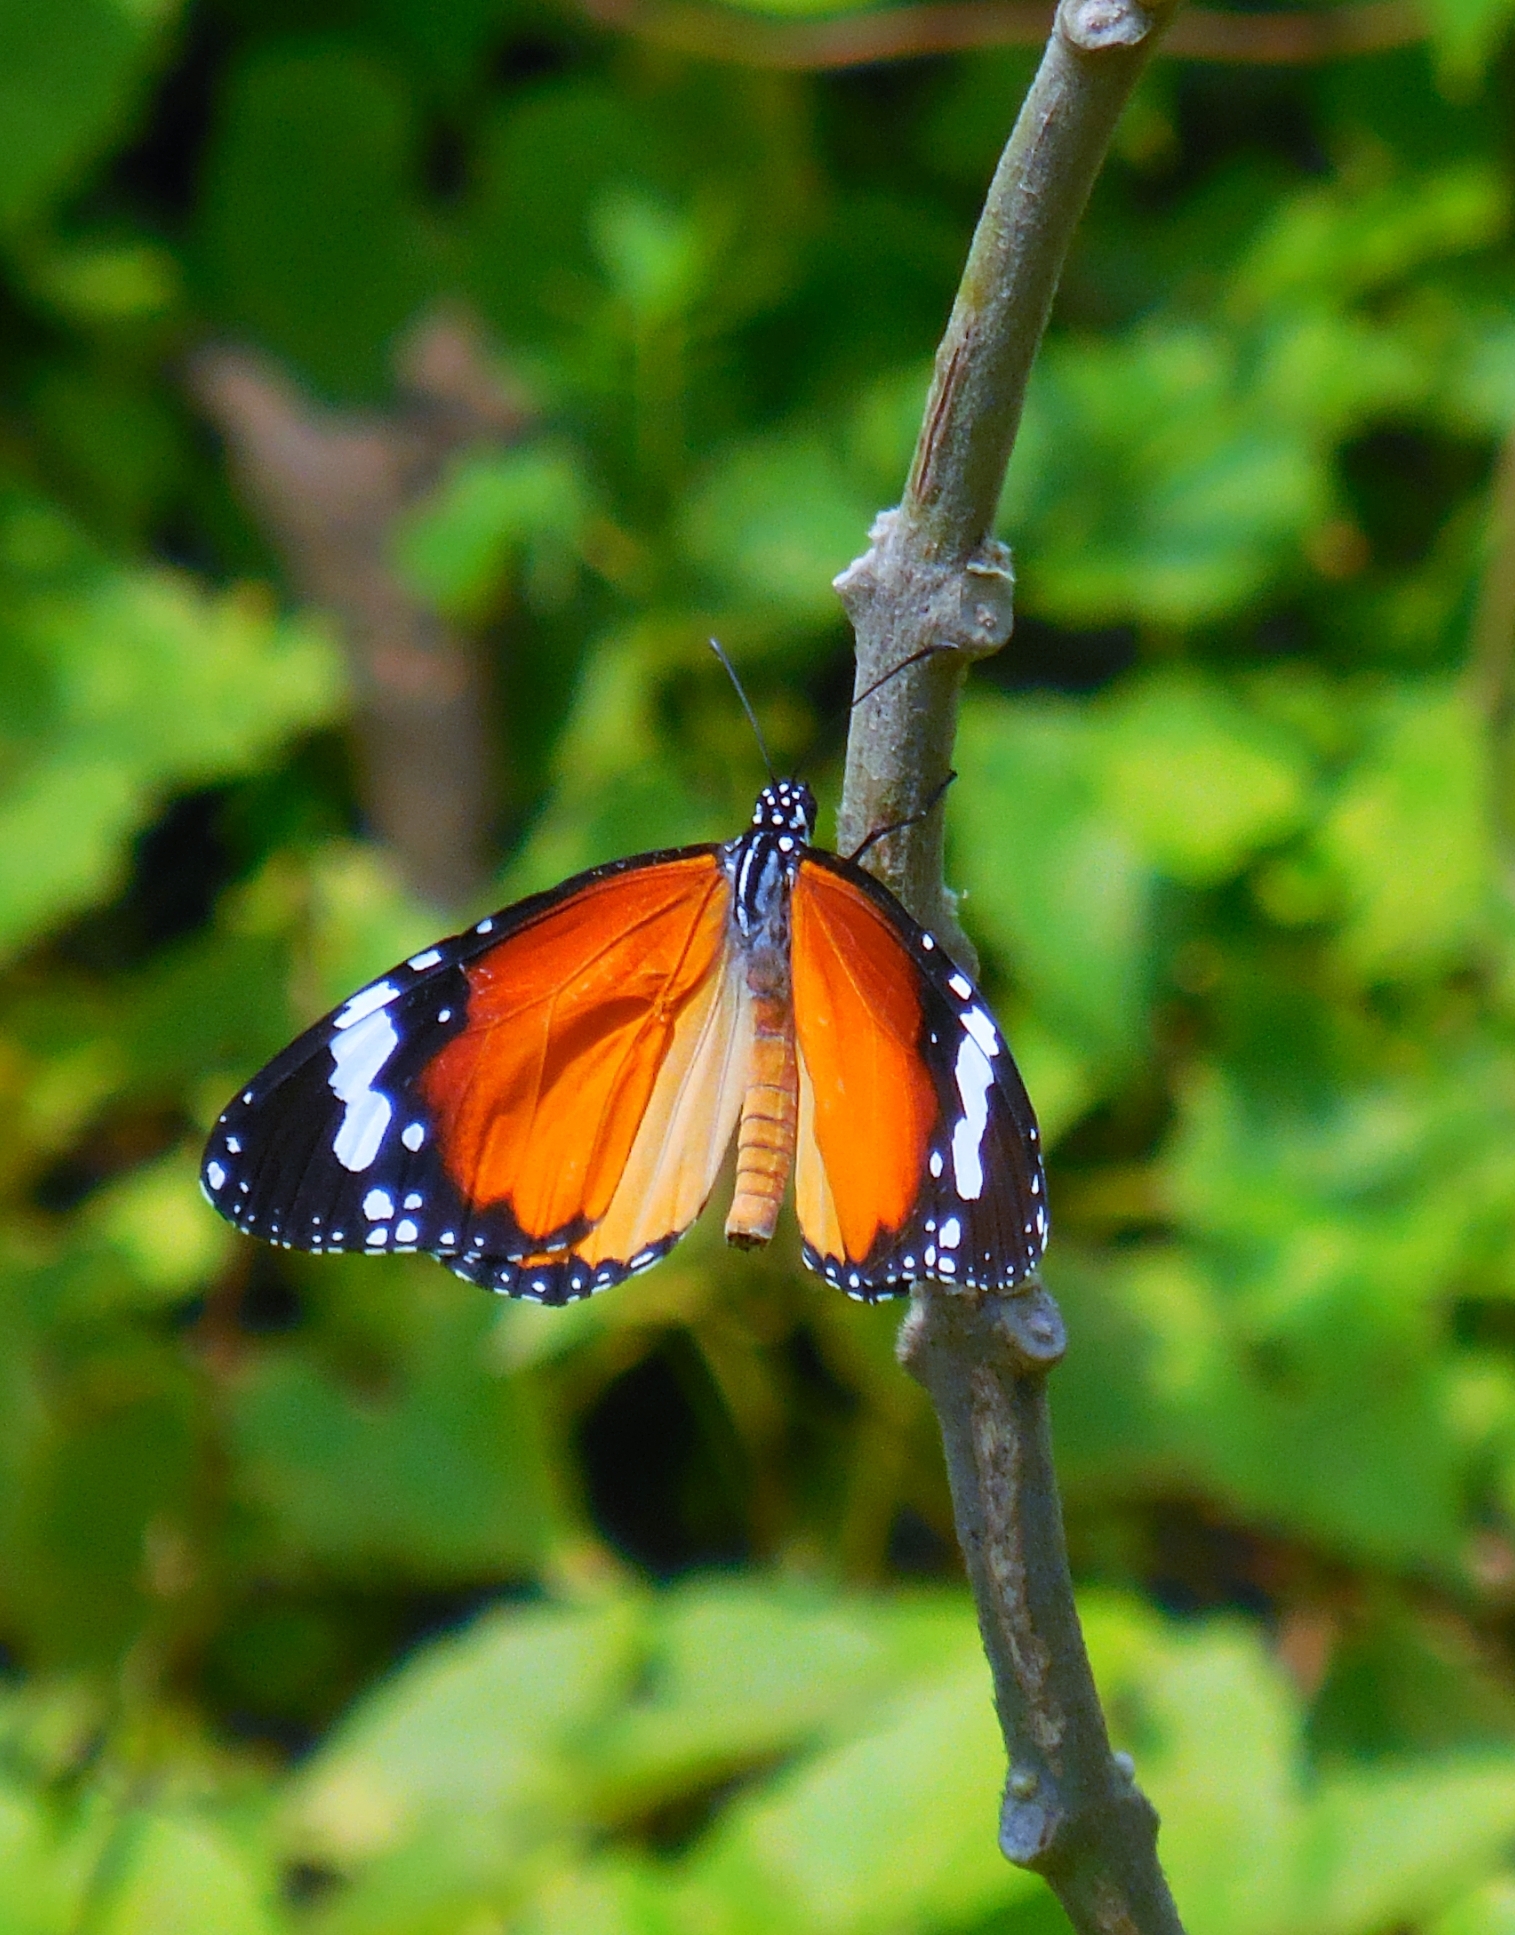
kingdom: Animalia
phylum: Arthropoda
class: Insecta
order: Lepidoptera
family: Nymphalidae
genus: Danaus
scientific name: Danaus chrysippus
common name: Plain tiger
